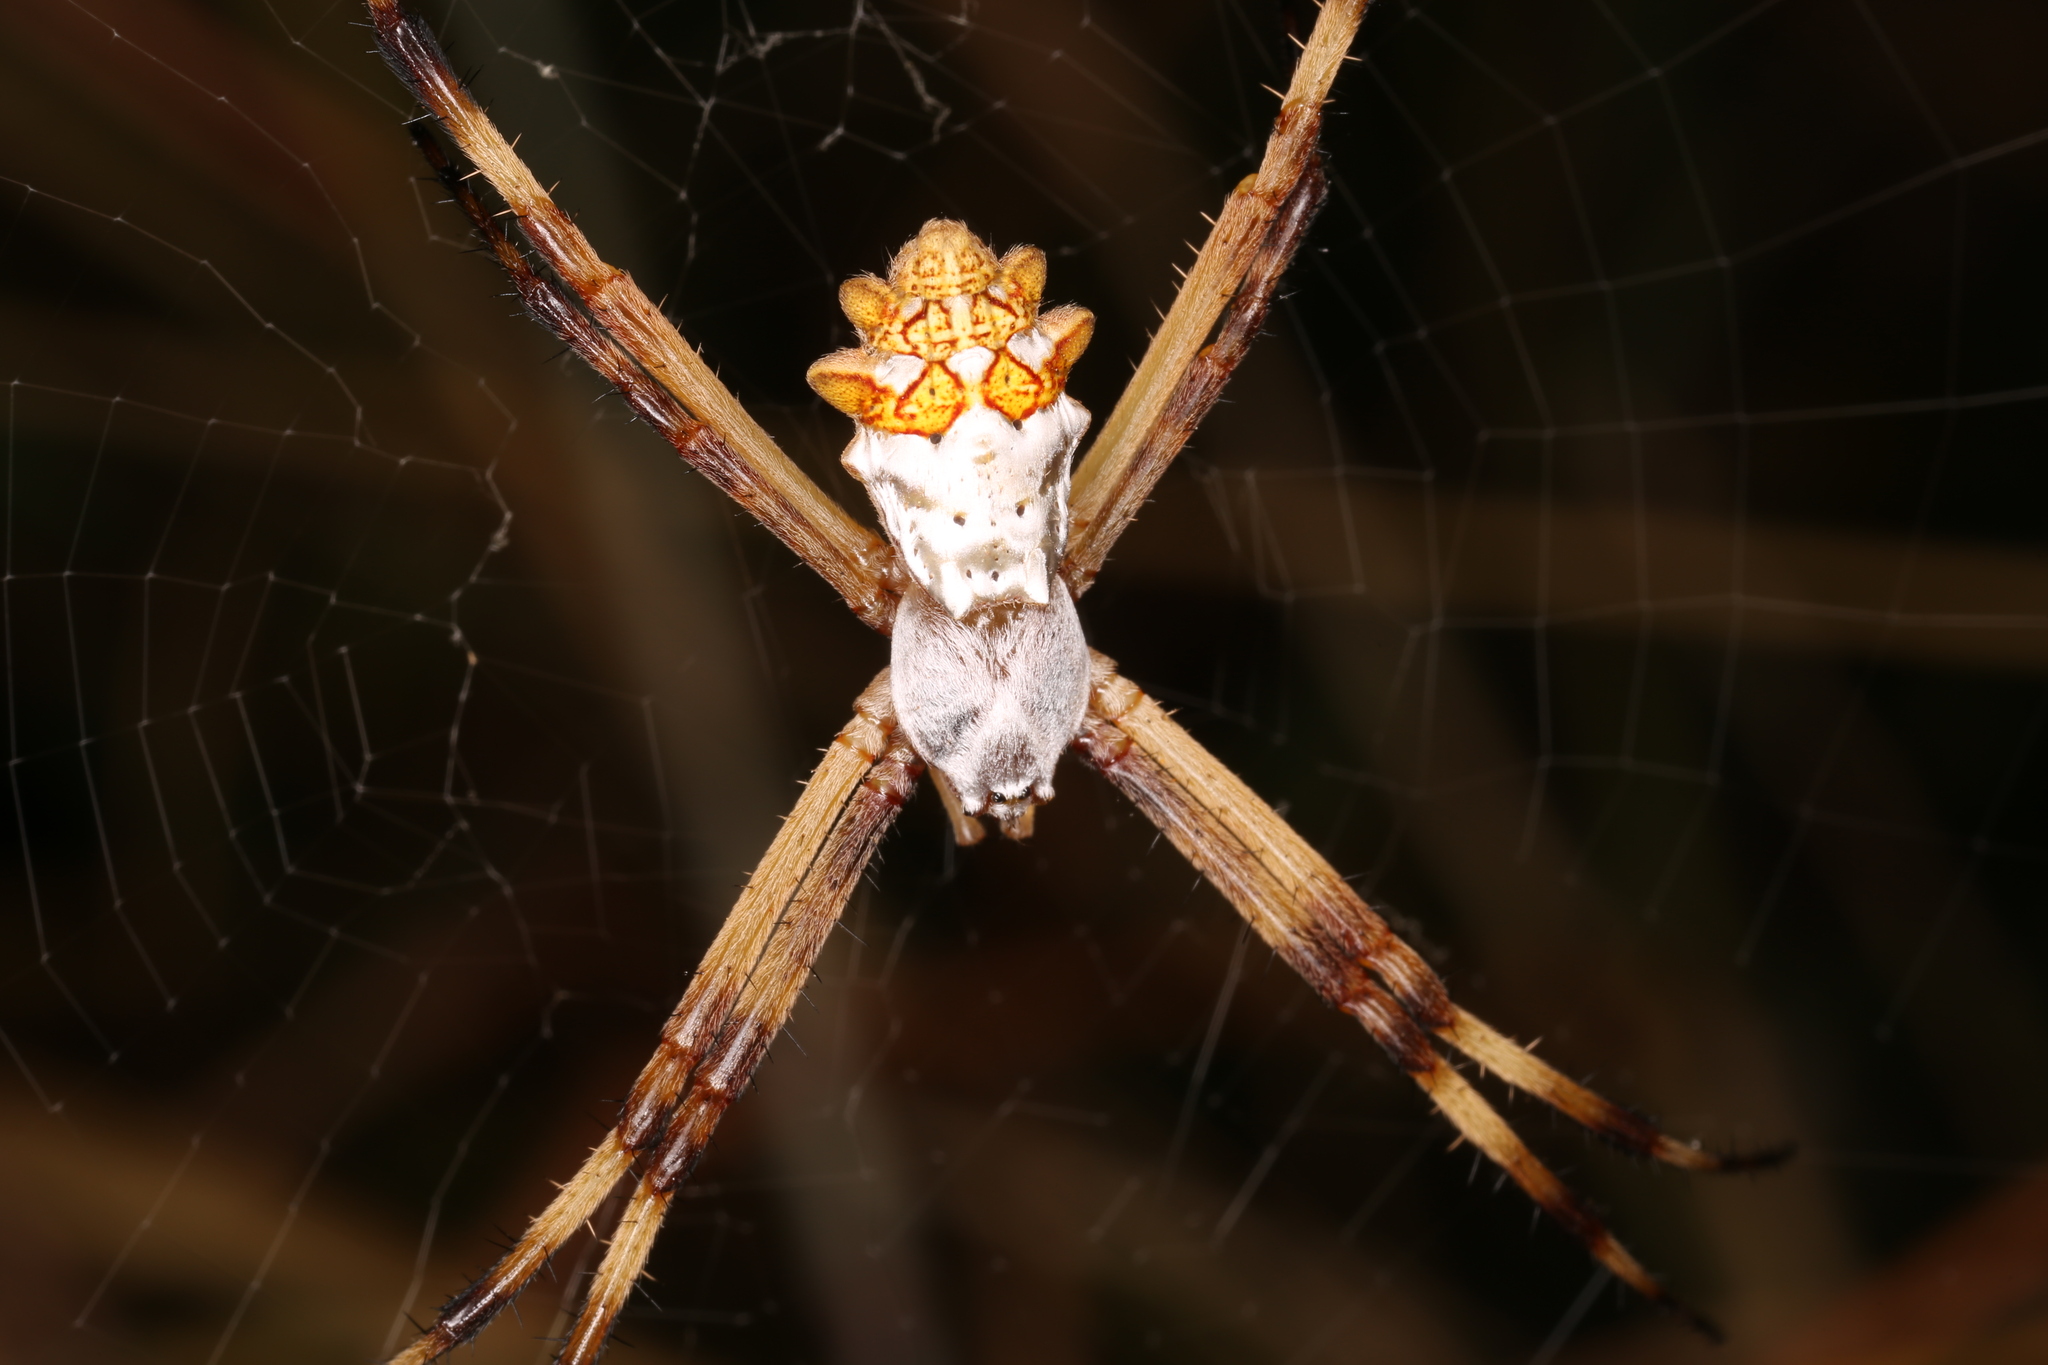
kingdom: Animalia
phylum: Arthropoda
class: Arachnida
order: Araneae
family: Araneidae
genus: Argiope
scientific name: Argiope argentata
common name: Orb weavers
